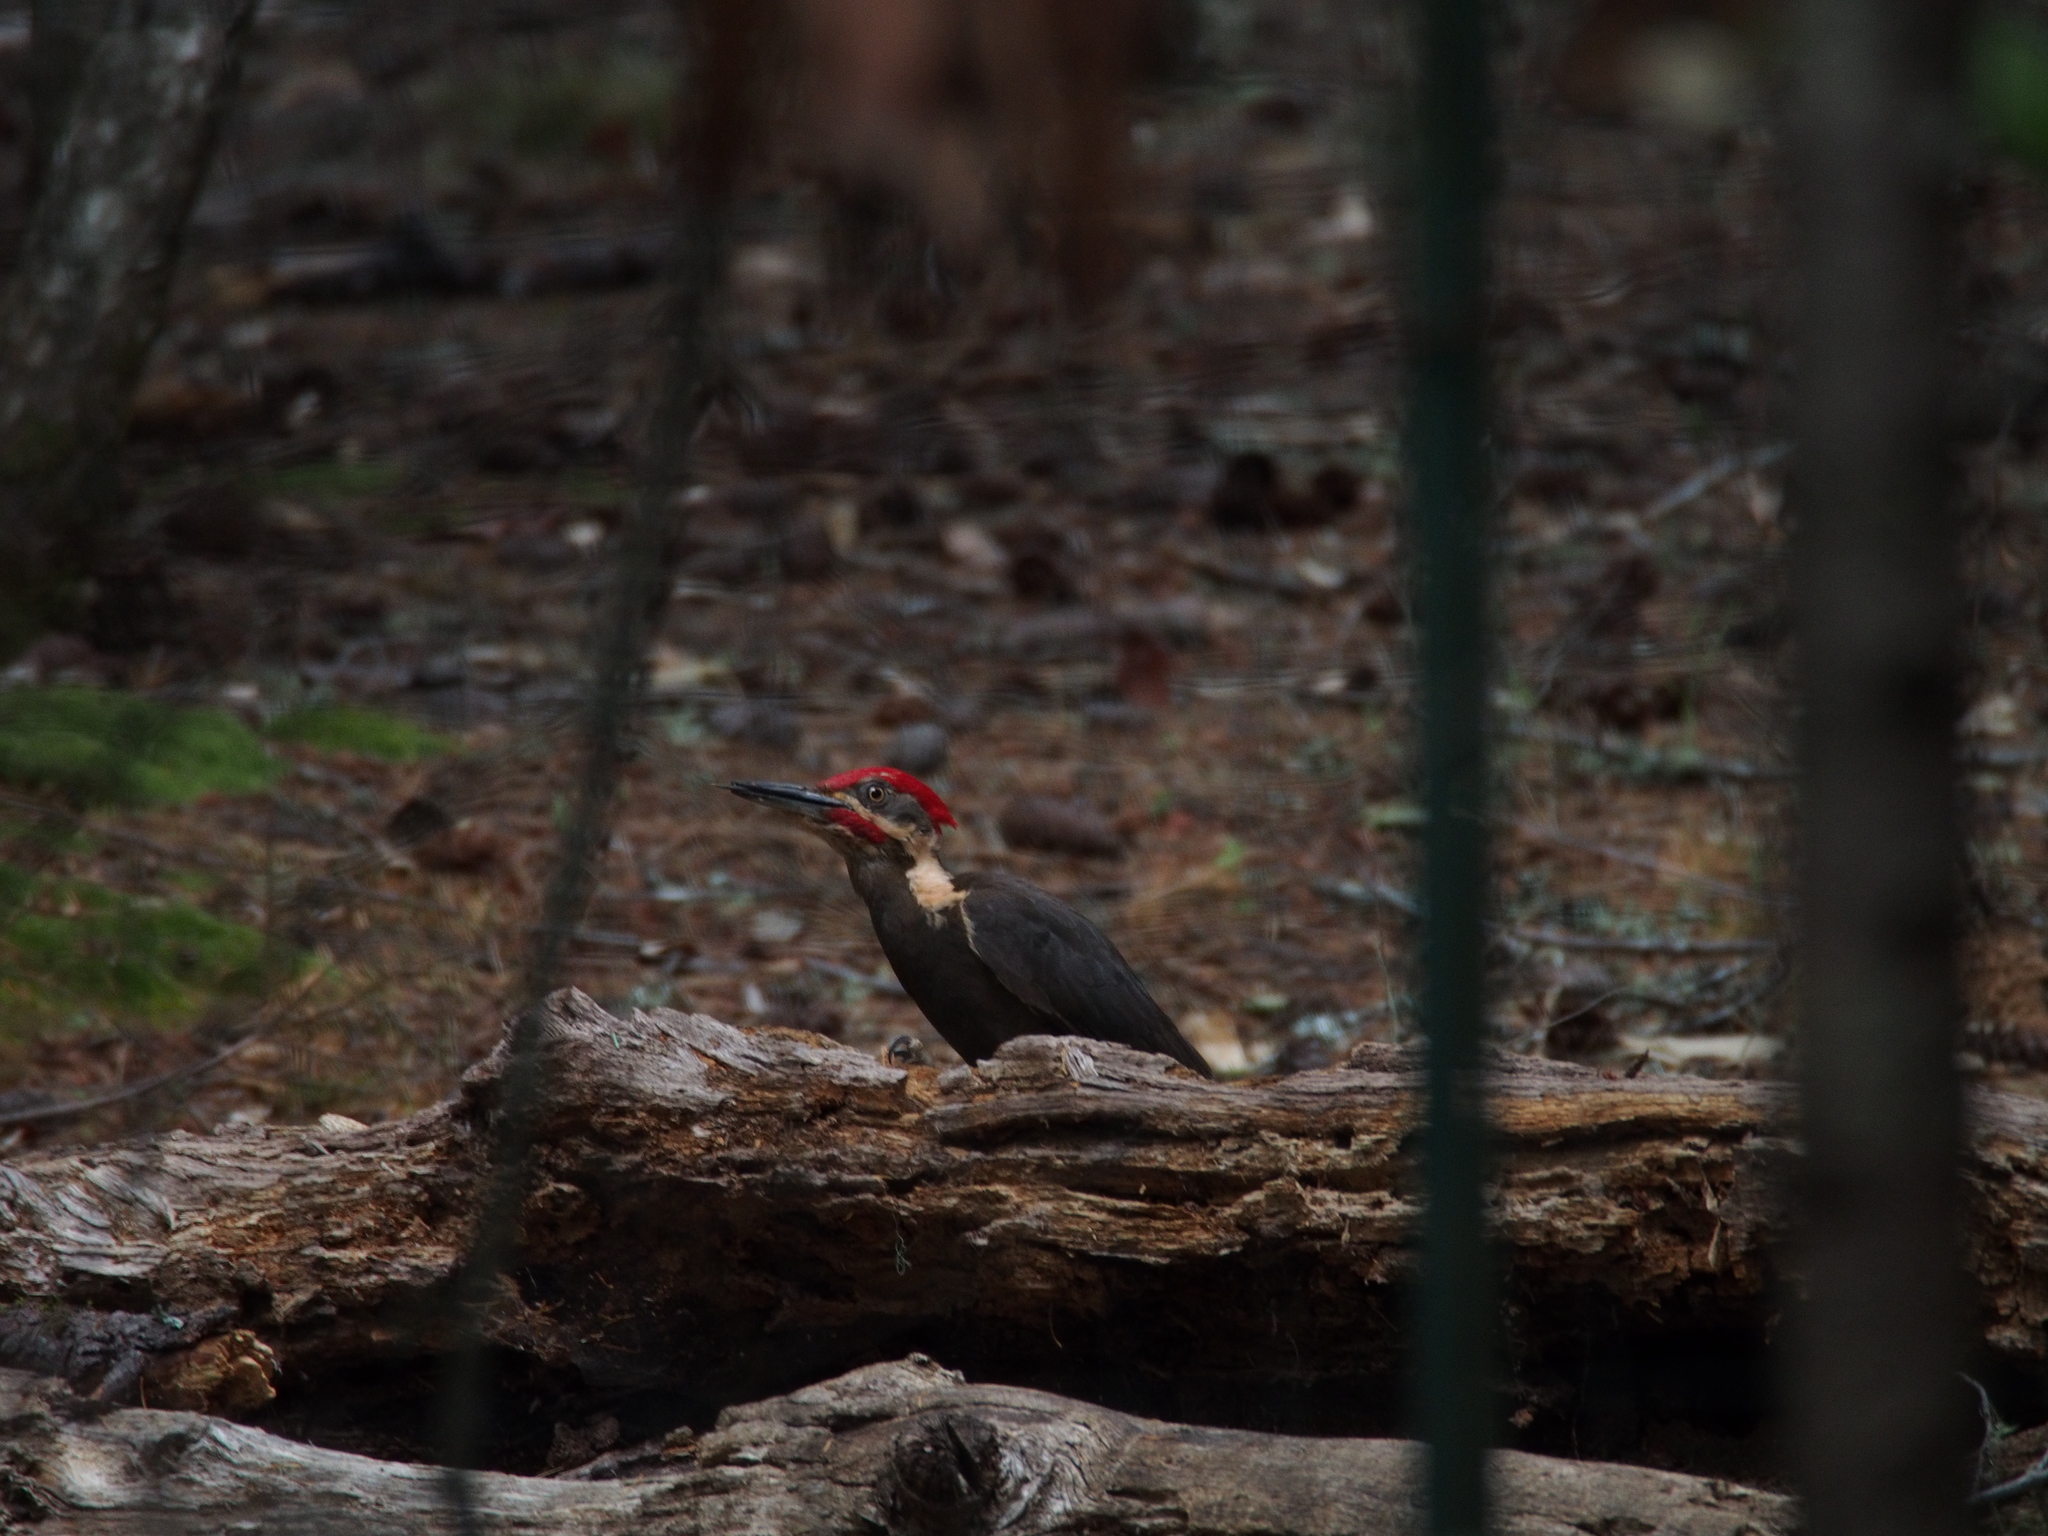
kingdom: Animalia
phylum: Chordata
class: Aves
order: Piciformes
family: Picidae
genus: Dryocopus
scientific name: Dryocopus pileatus
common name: Pileated woodpecker
